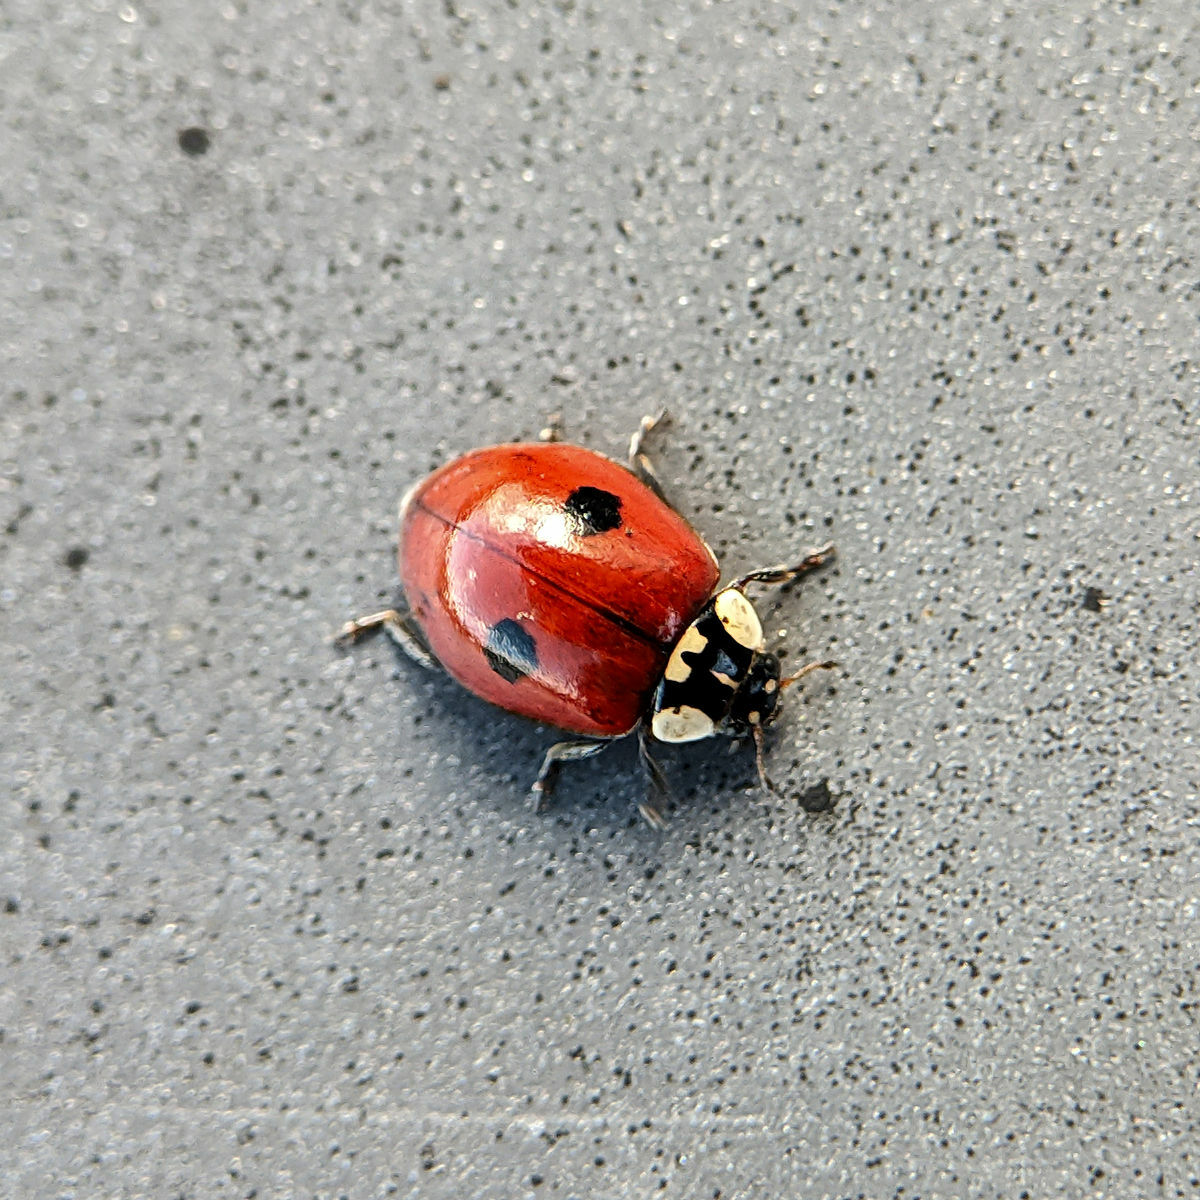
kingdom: Animalia
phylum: Arthropoda
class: Insecta
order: Coleoptera
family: Coccinellidae
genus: Adalia
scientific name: Adalia bipunctata
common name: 2-spot ladybird
